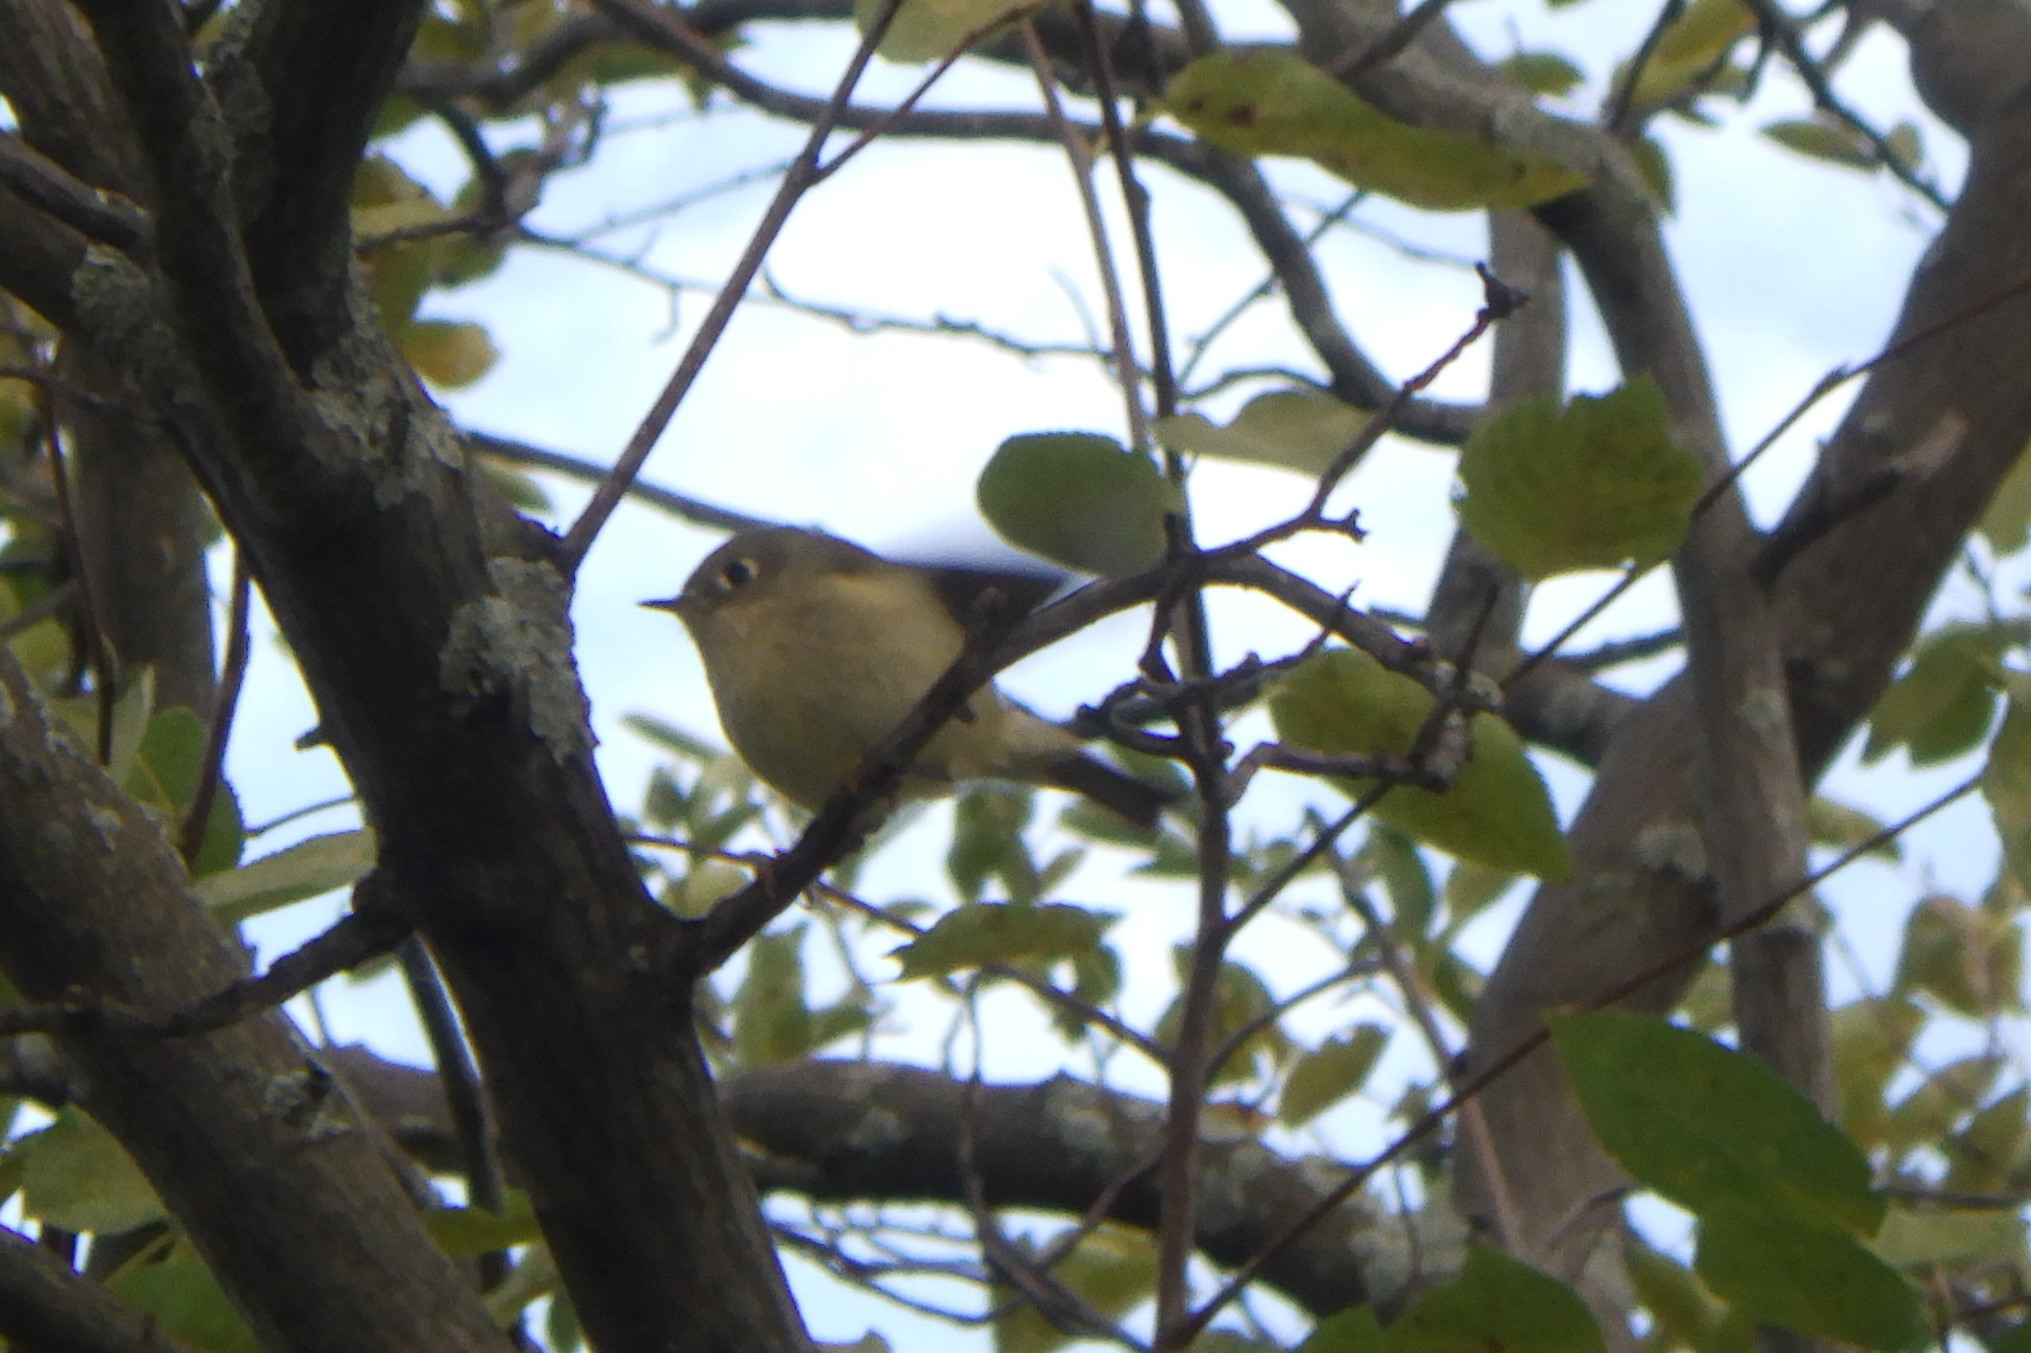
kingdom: Animalia
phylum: Chordata
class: Aves
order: Passeriformes
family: Regulidae
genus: Regulus
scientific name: Regulus calendula
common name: Ruby-crowned kinglet
